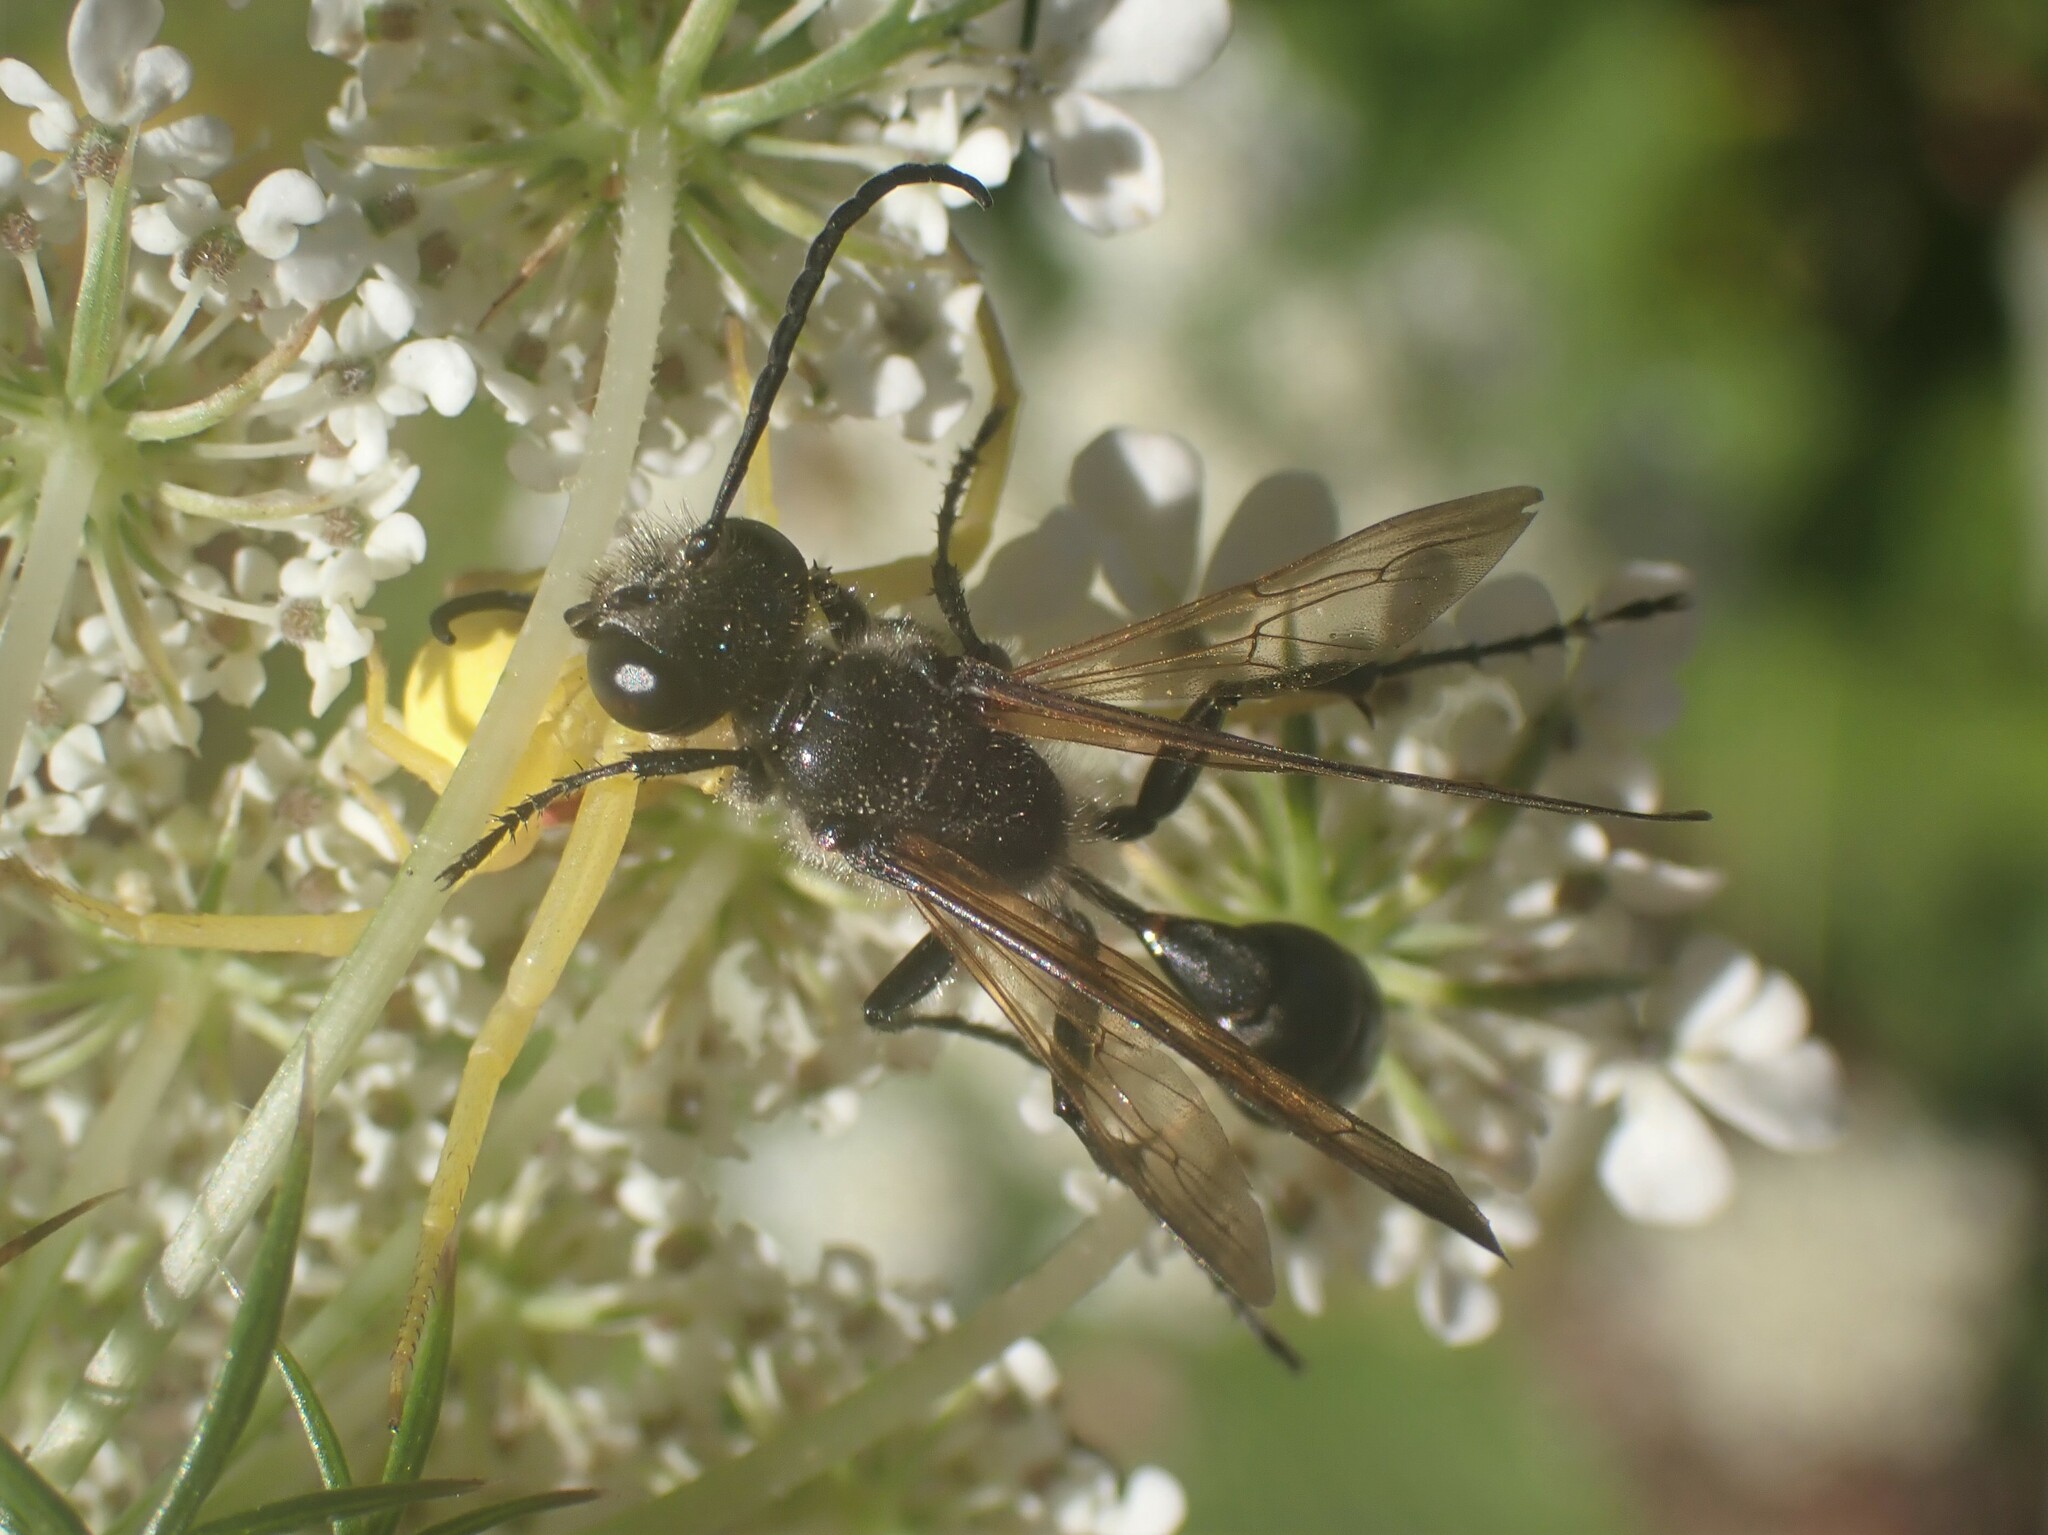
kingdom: Animalia
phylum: Arthropoda
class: Insecta
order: Hymenoptera
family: Sphecidae
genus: Isodontia
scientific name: Isodontia mexicana
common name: Mud dauber
